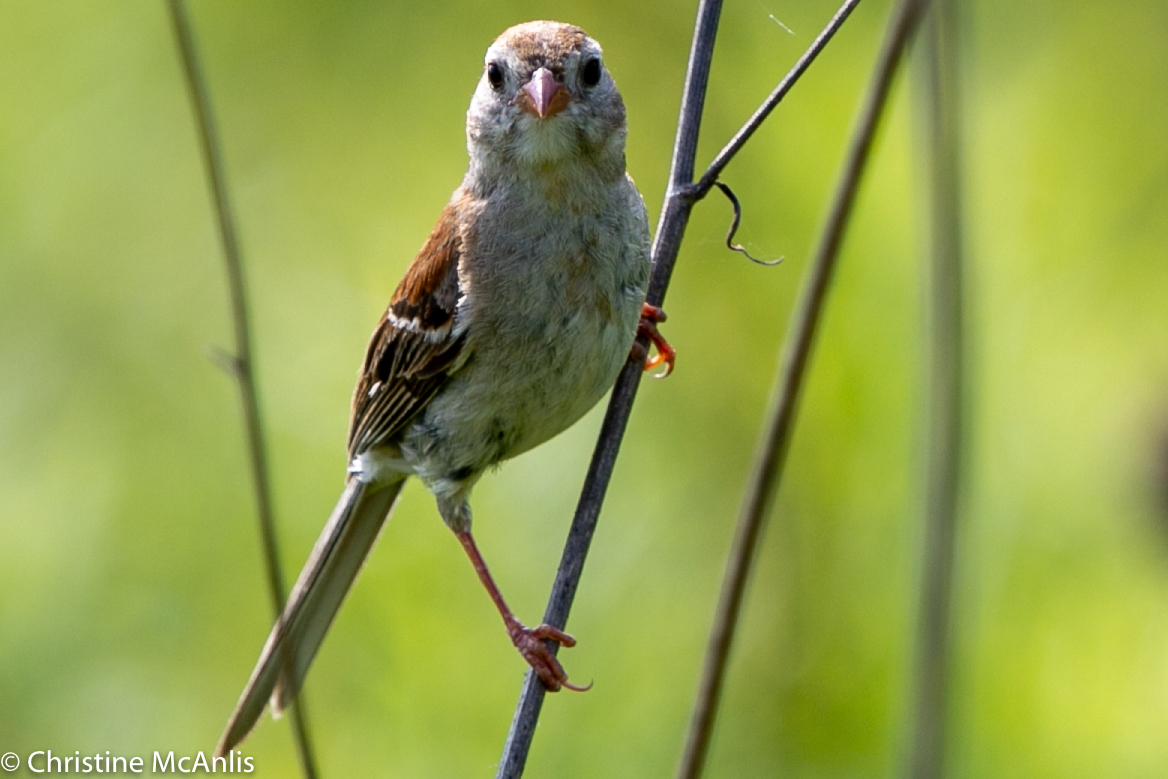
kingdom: Animalia
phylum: Chordata
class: Aves
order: Passeriformes
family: Passerellidae
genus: Spizella
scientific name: Spizella pusilla
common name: Field sparrow
